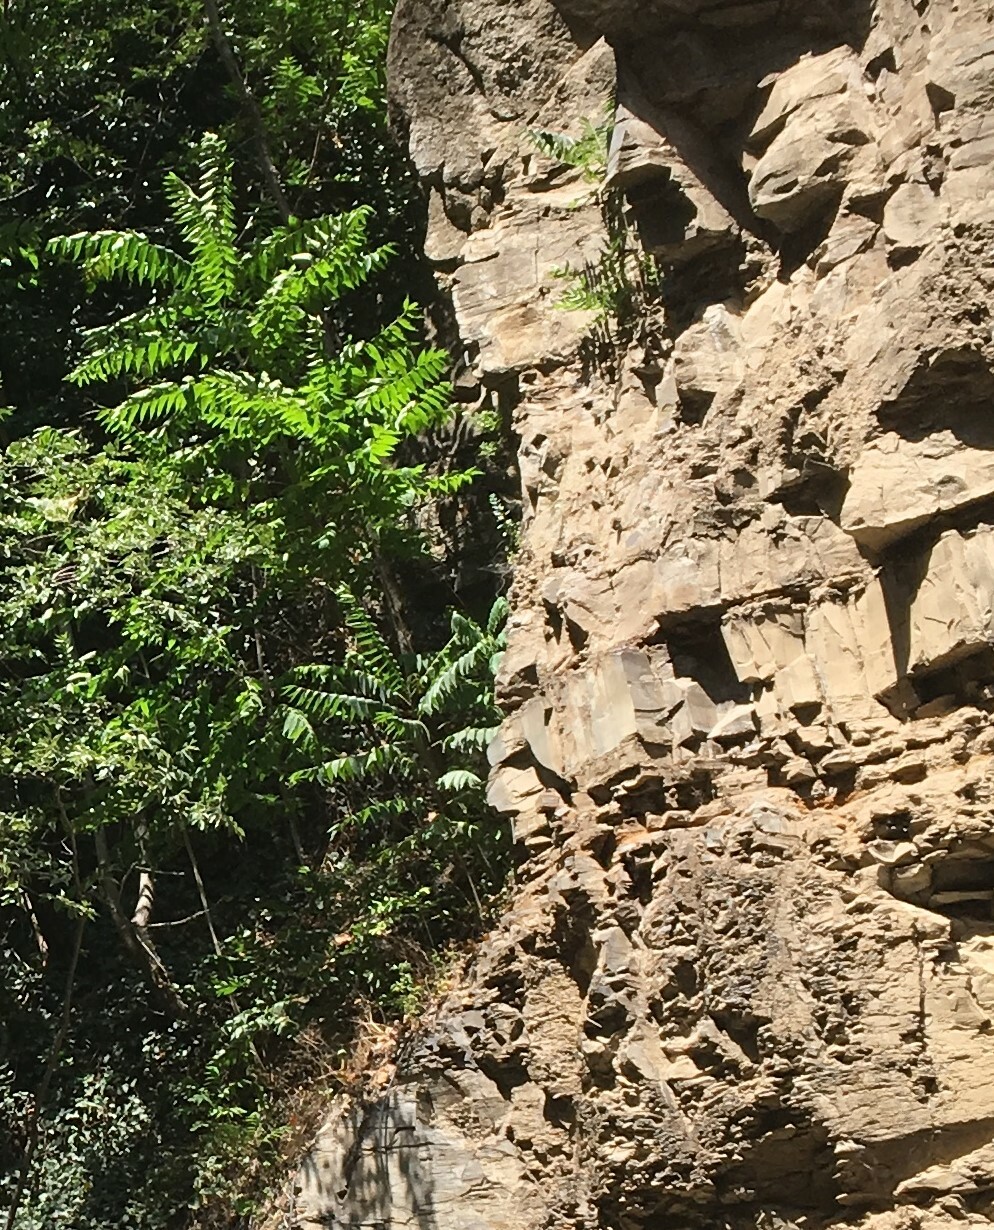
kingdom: Plantae
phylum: Tracheophyta
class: Magnoliopsida
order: Sapindales
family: Simaroubaceae
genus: Ailanthus
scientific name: Ailanthus altissima
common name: Tree-of-heaven
